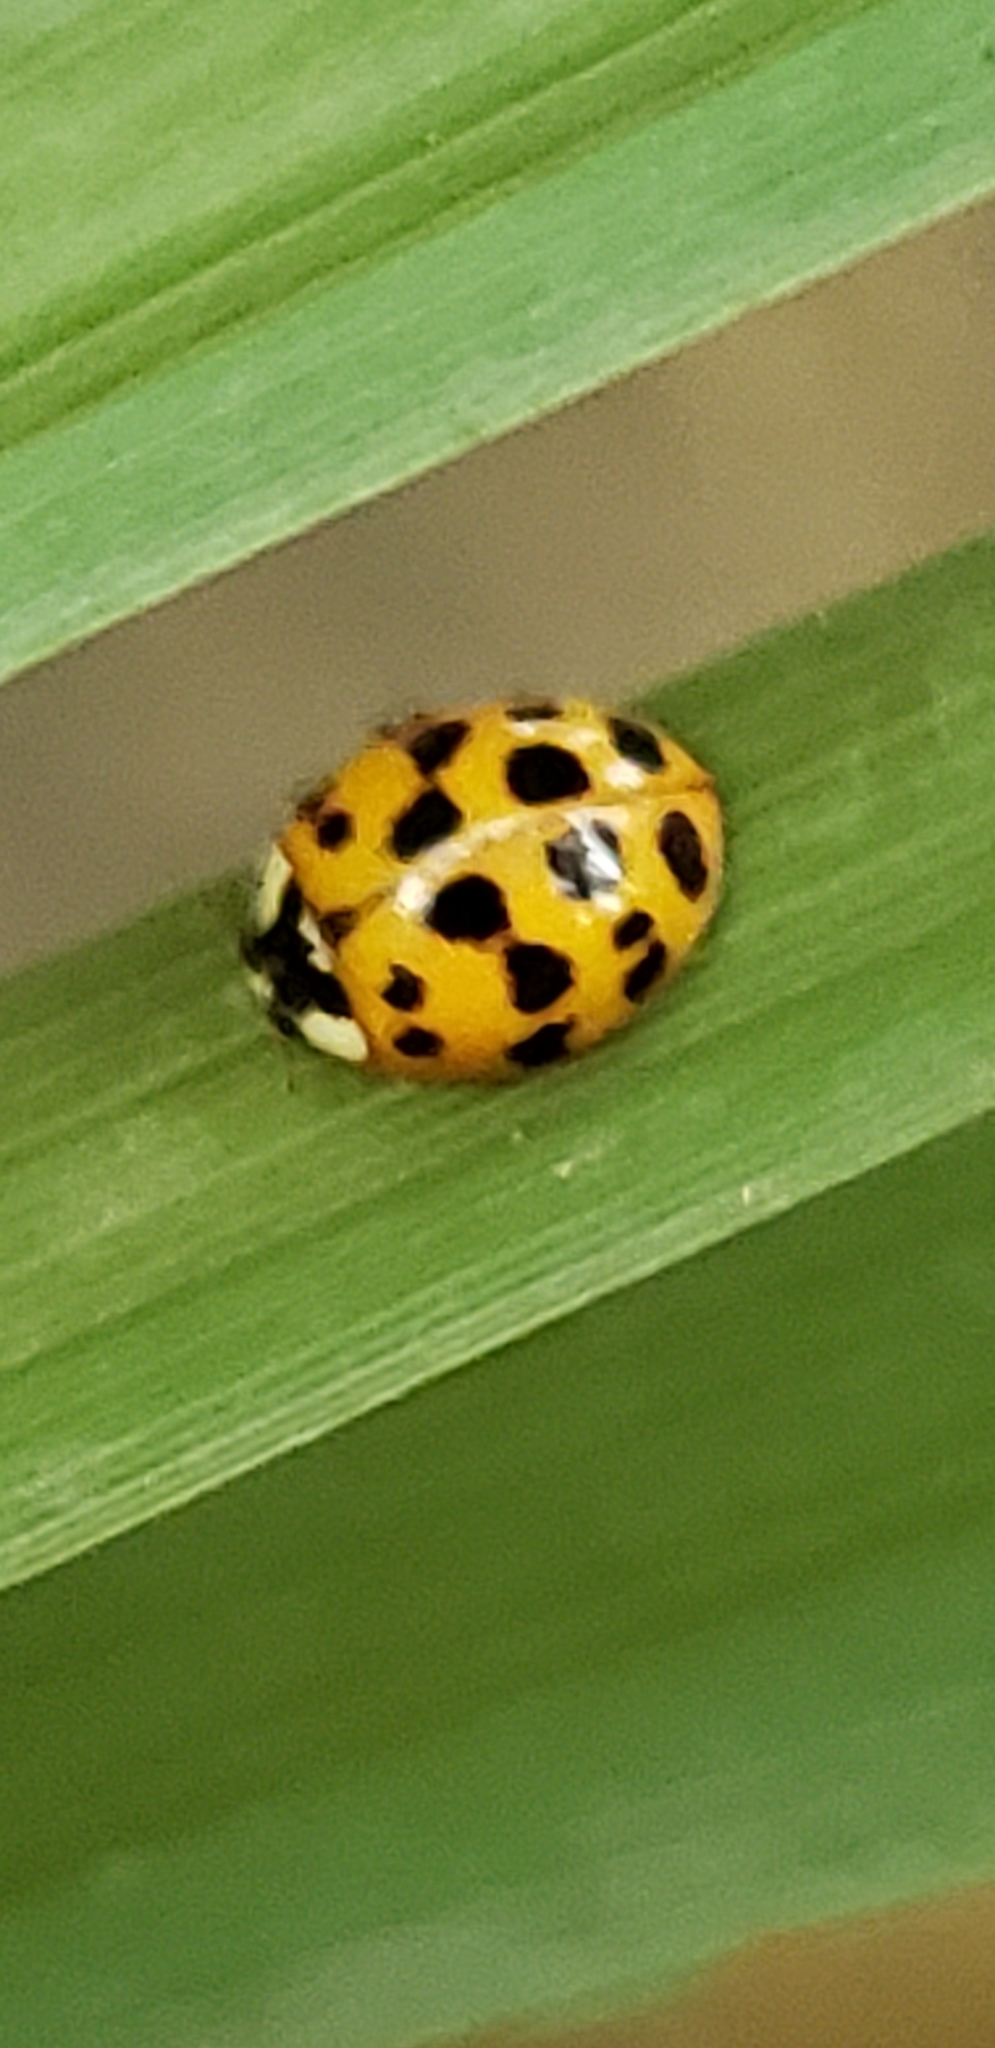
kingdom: Animalia
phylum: Arthropoda
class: Insecta
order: Coleoptera
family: Coccinellidae
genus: Harmonia
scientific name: Harmonia axyridis
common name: Harlequin ladybird
